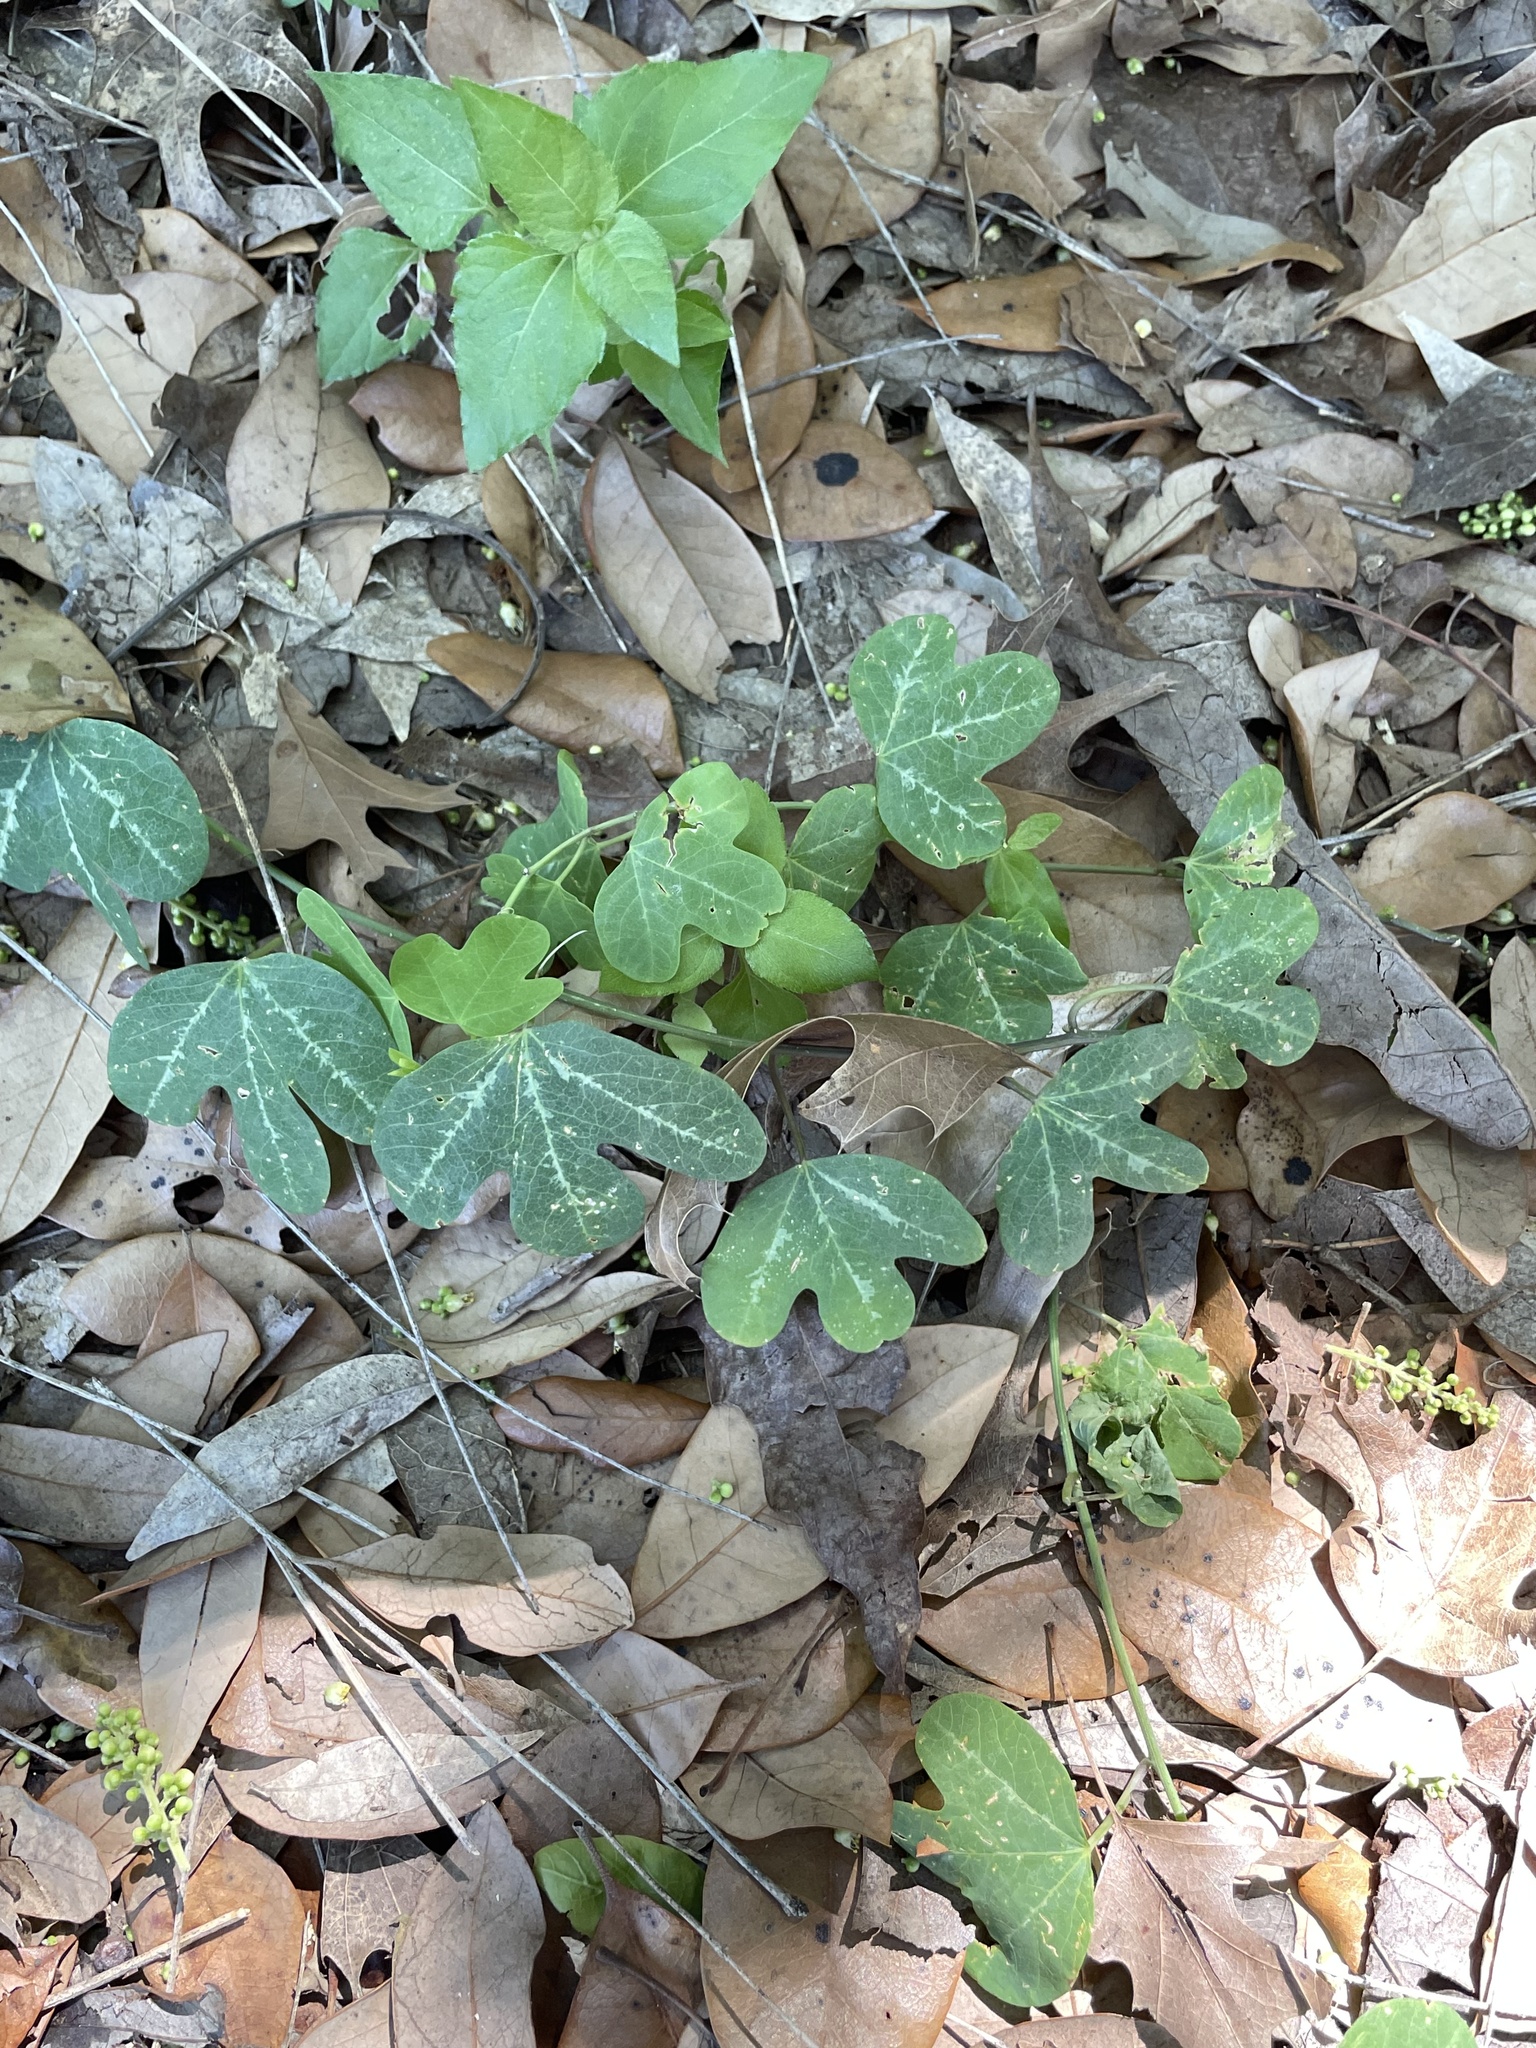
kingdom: Plantae
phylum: Tracheophyta
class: Magnoliopsida
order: Malpighiales
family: Passifloraceae
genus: Passiflora
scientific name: Passiflora affinis
